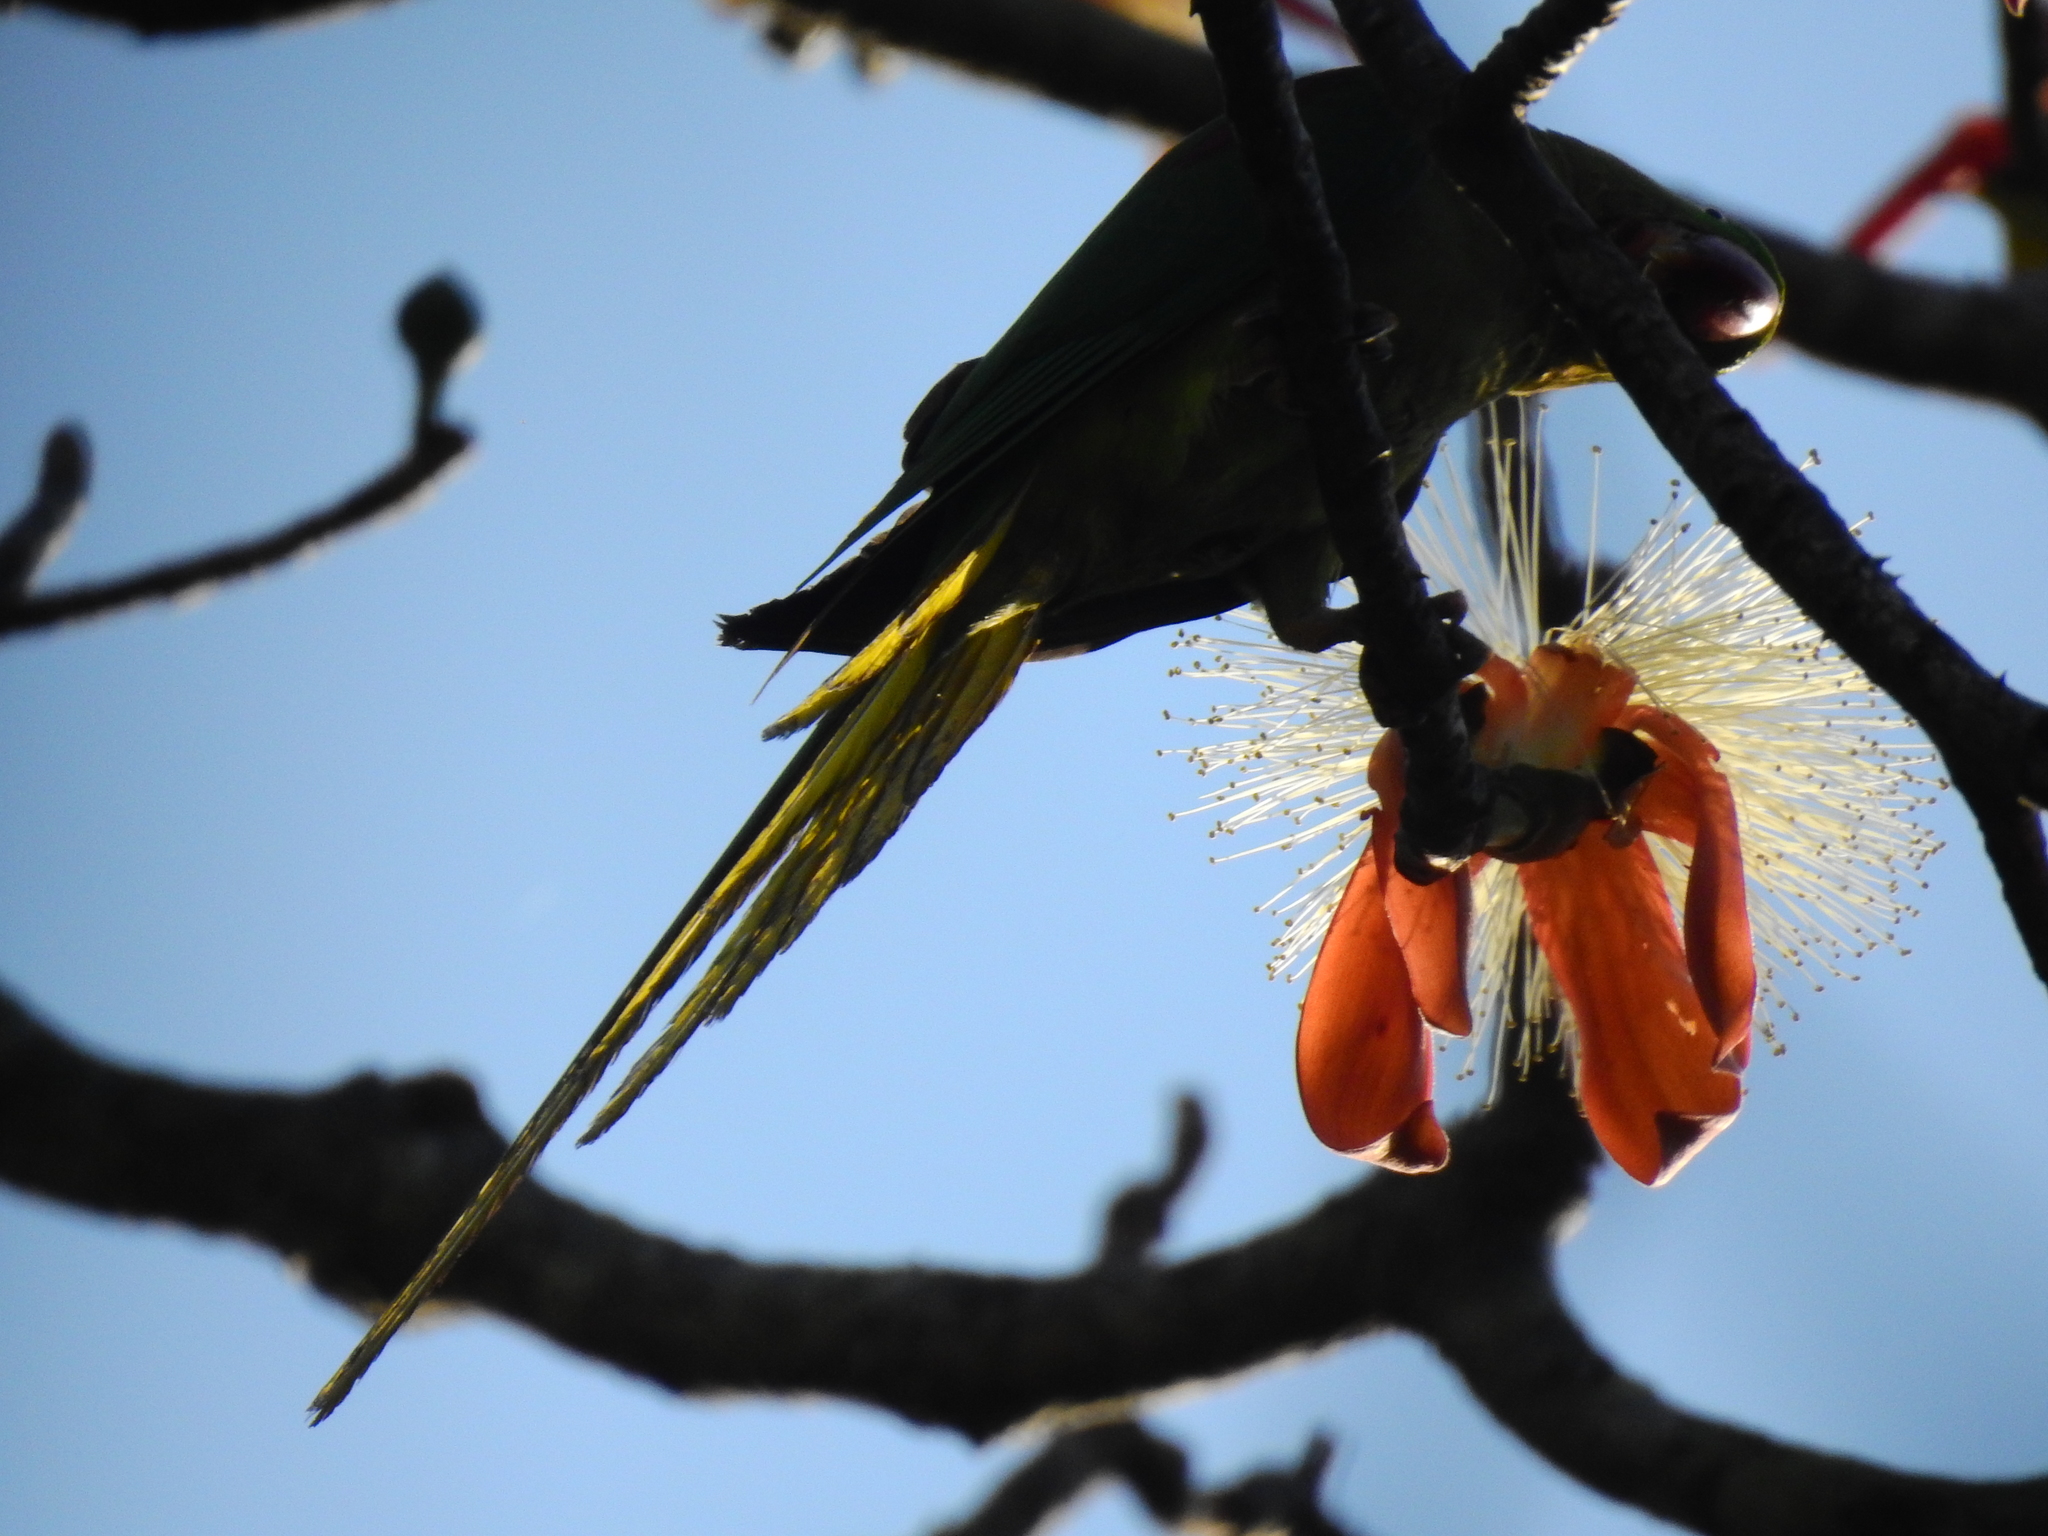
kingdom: Animalia
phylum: Chordata
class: Aves
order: Psittaciformes
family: Psittacidae
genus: Psittacula
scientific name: Psittacula eupatria
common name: Alexandrine parakeet
